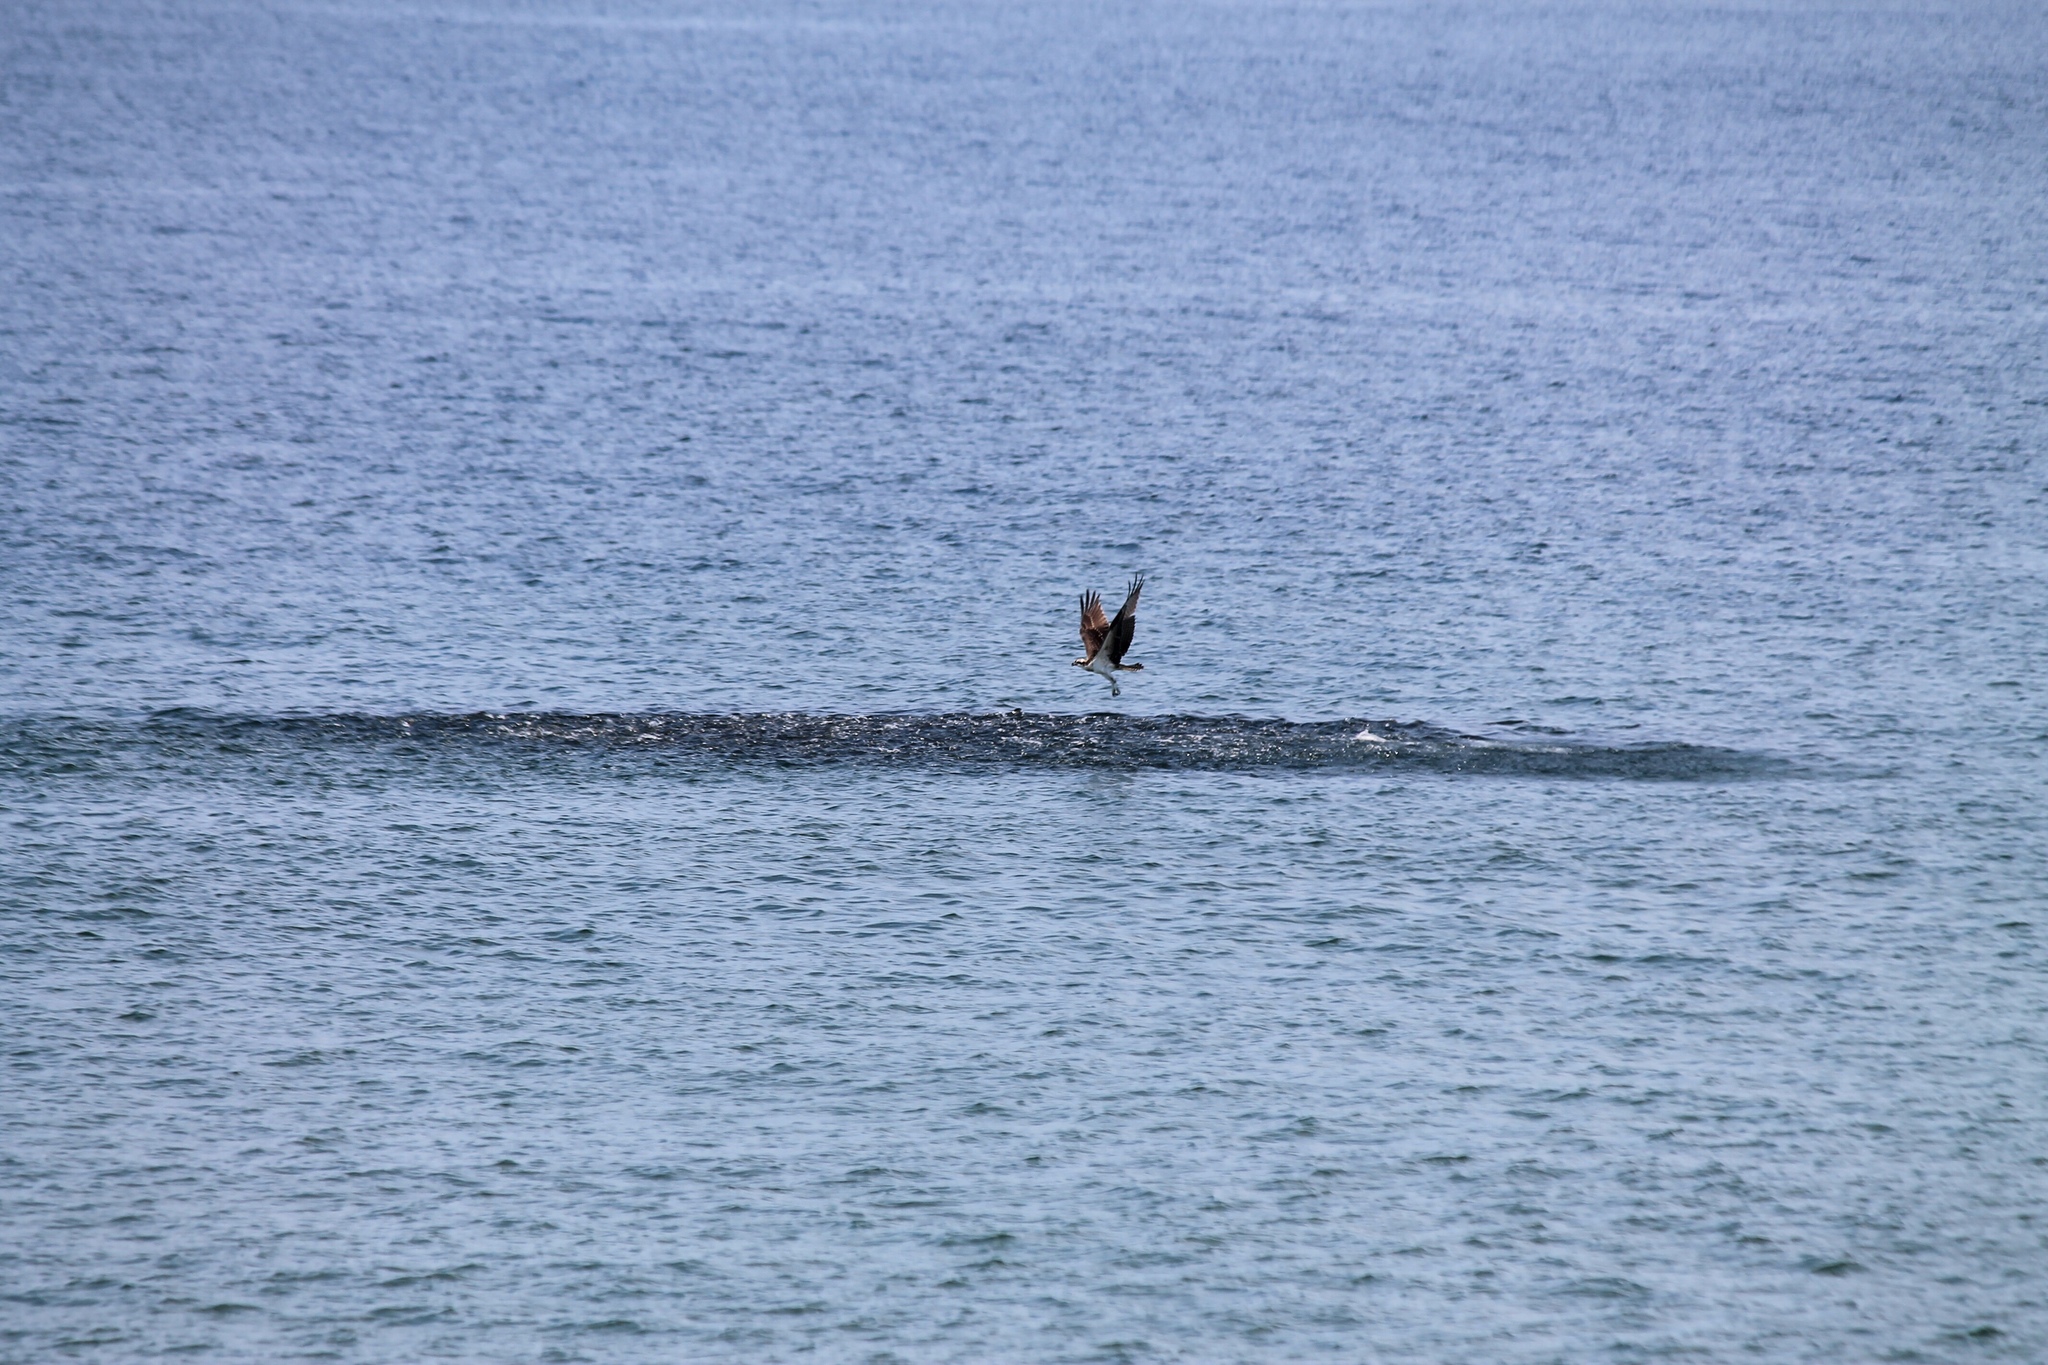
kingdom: Animalia
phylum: Chordata
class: Aves
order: Accipitriformes
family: Pandionidae
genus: Pandion
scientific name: Pandion haliaetus
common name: Osprey
